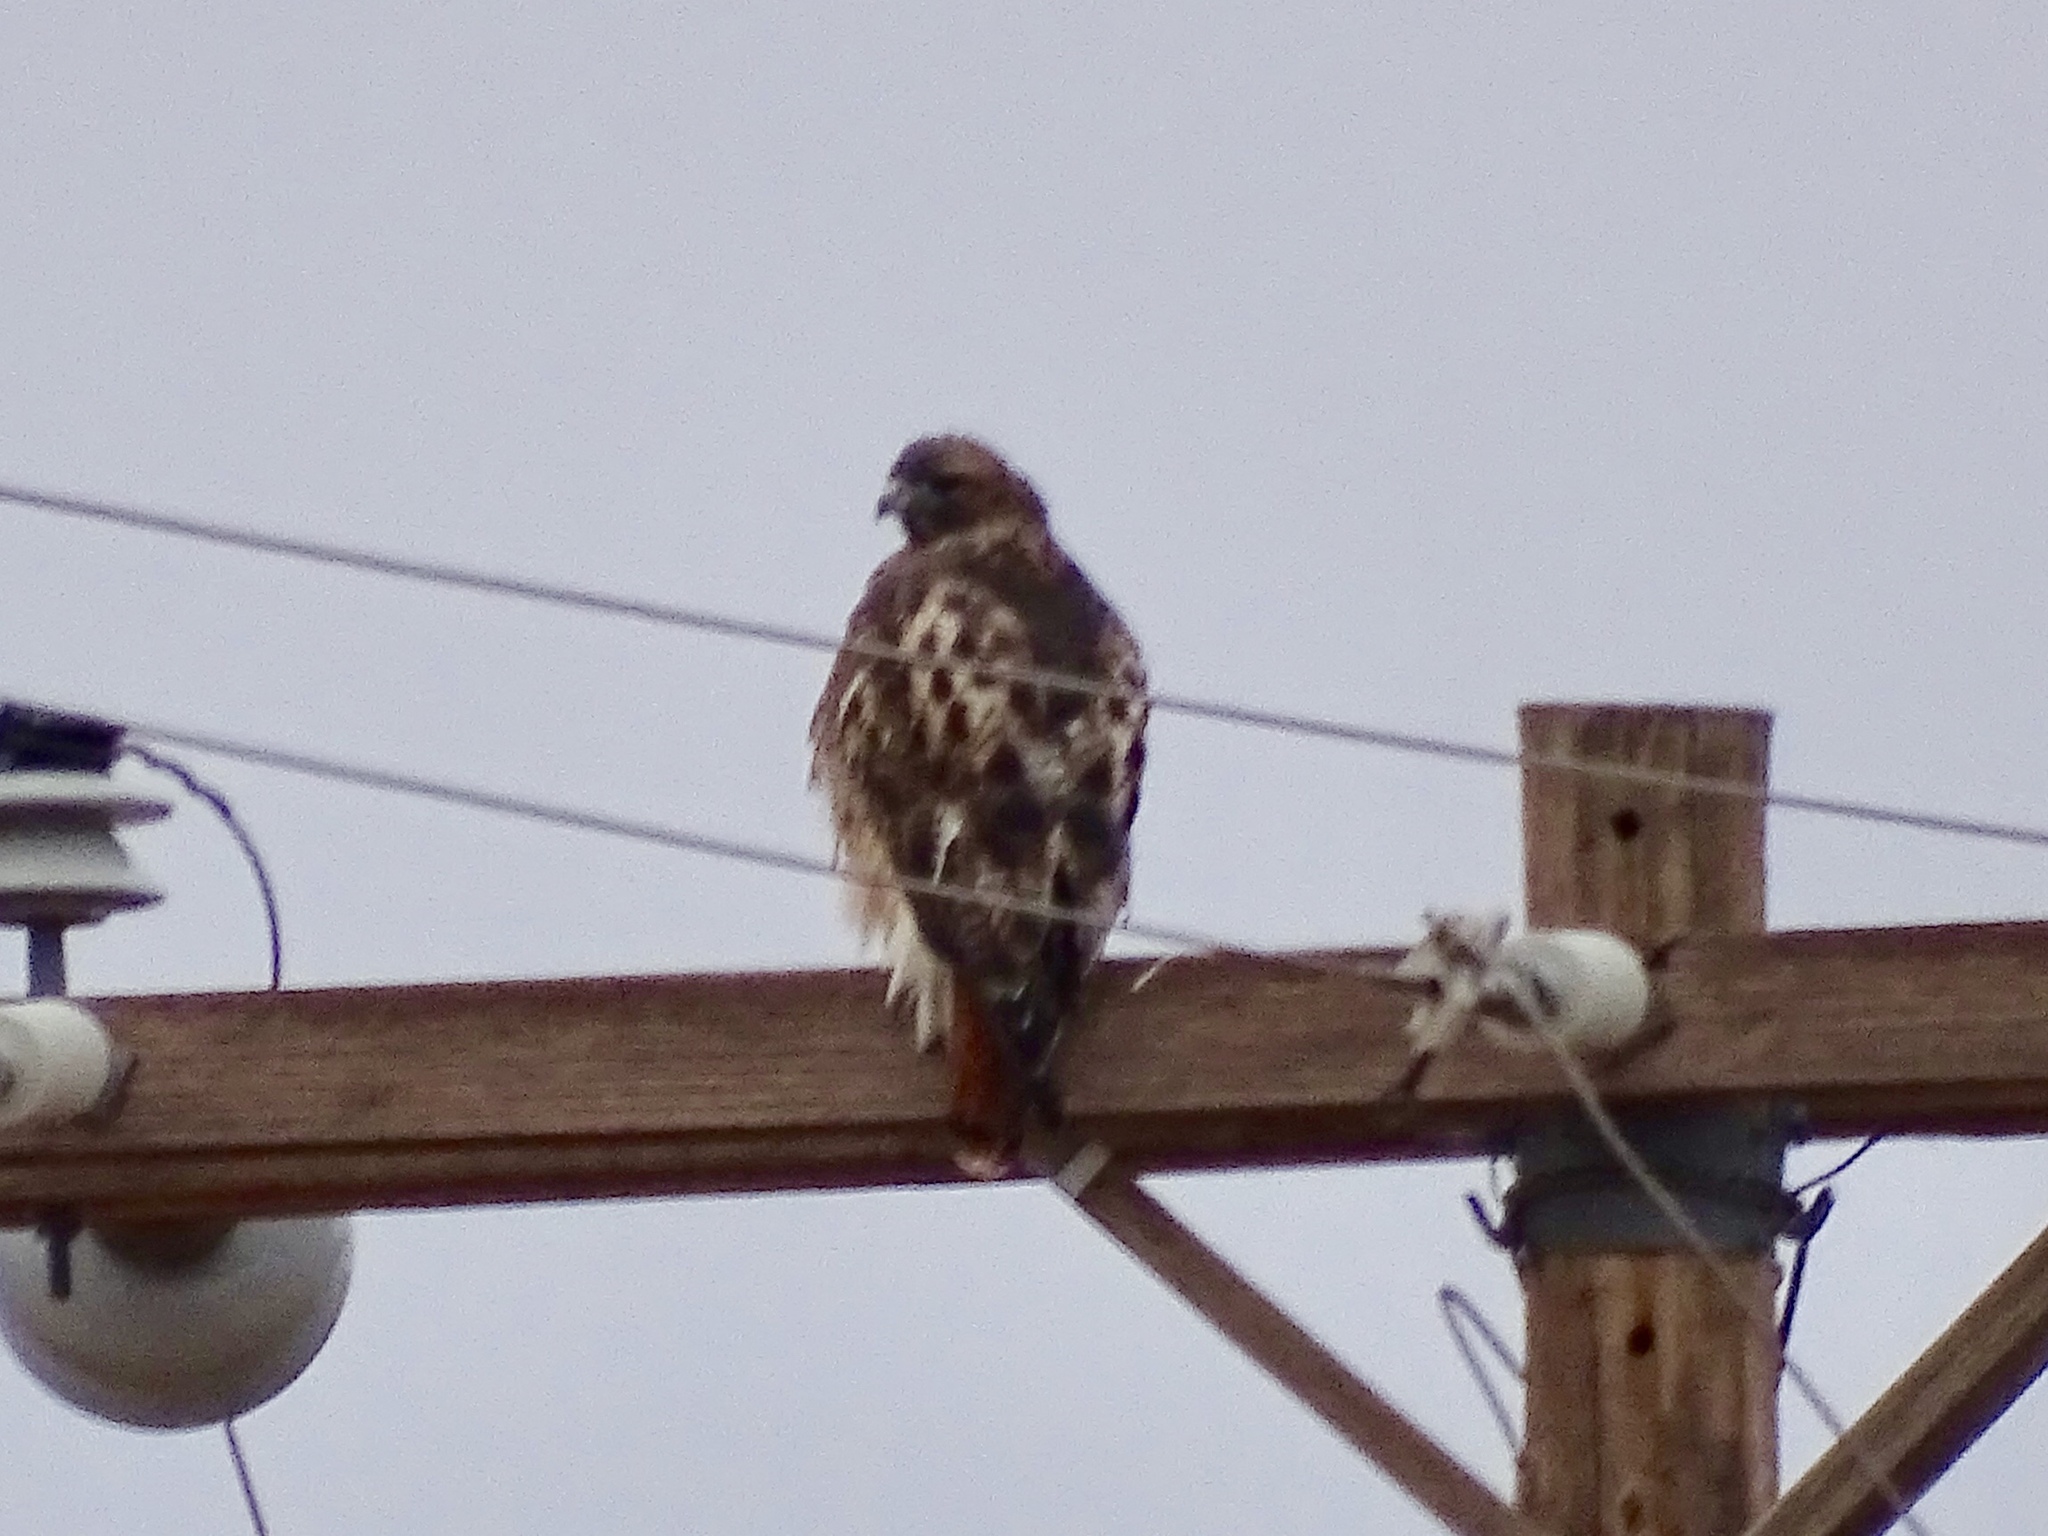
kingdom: Animalia
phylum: Chordata
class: Aves
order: Accipitriformes
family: Accipitridae
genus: Buteo
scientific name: Buteo jamaicensis
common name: Red-tailed hawk
